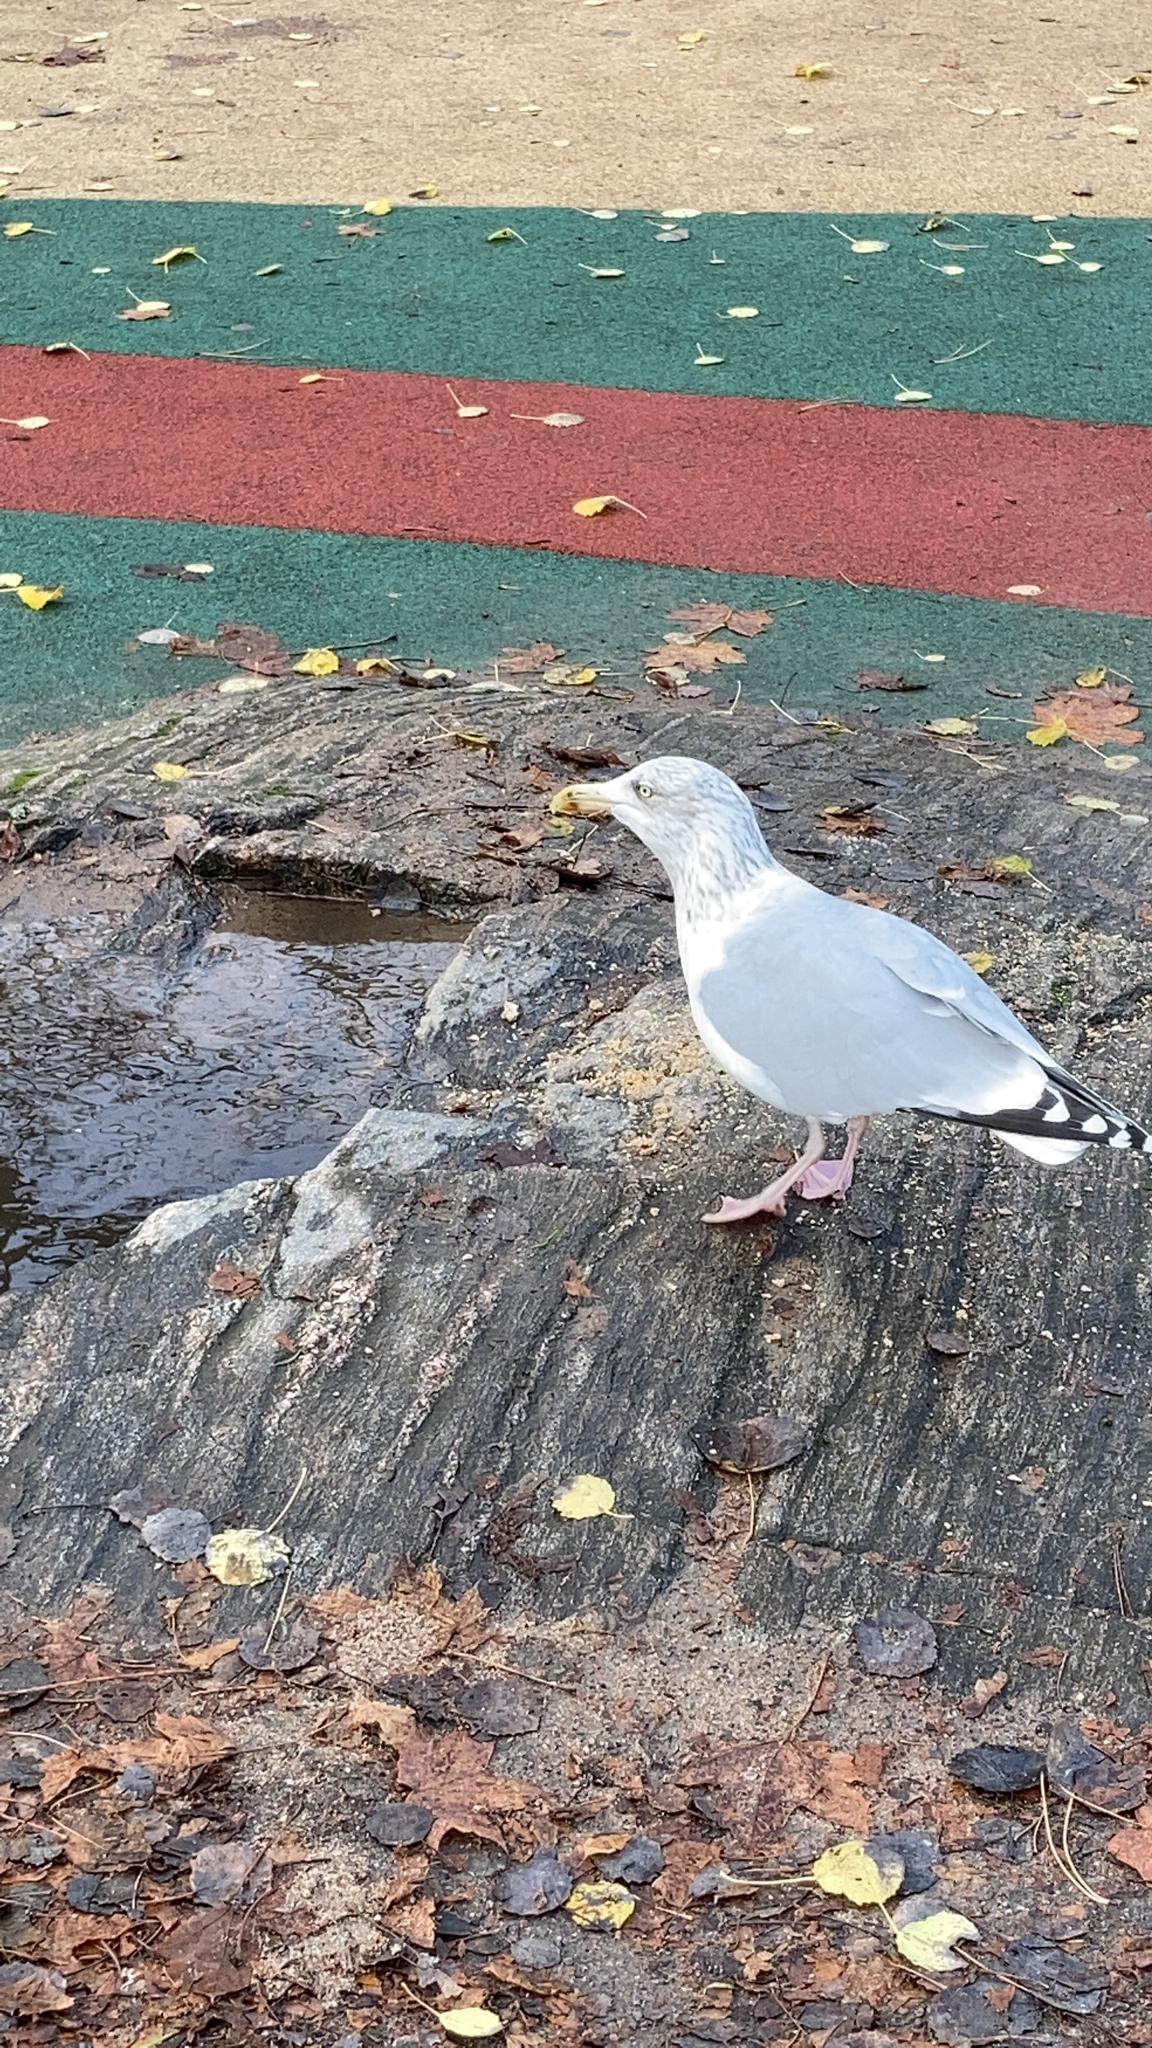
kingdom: Animalia
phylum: Chordata
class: Aves
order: Charadriiformes
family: Laridae
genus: Larus
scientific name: Larus argentatus
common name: Herring gull
